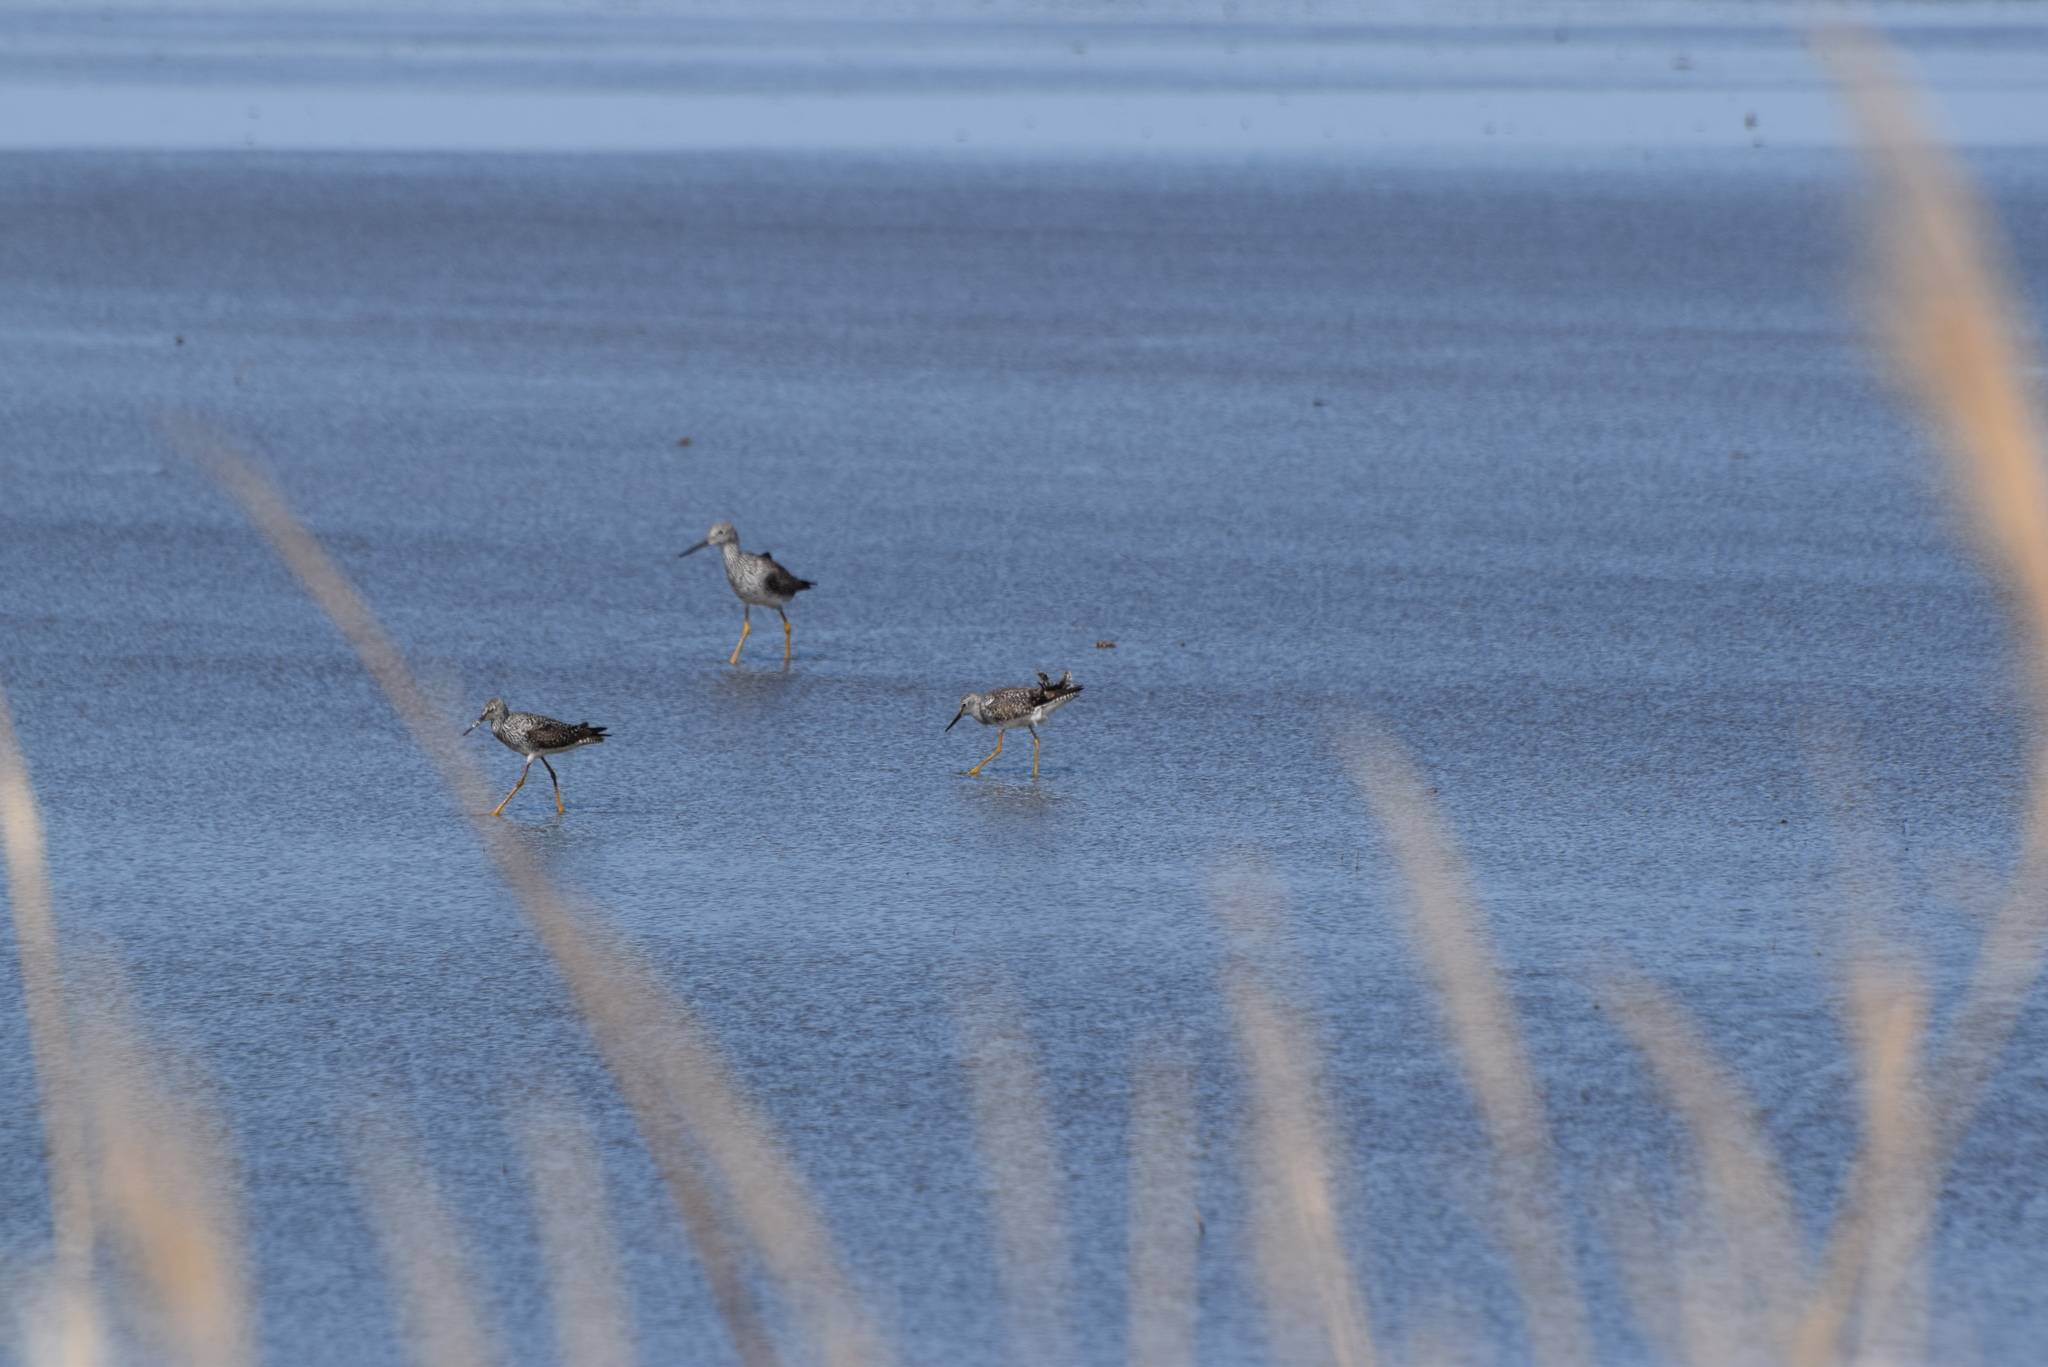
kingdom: Animalia
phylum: Chordata
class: Aves
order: Charadriiformes
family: Scolopacidae
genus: Tringa
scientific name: Tringa melanoleuca
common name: Greater yellowlegs
